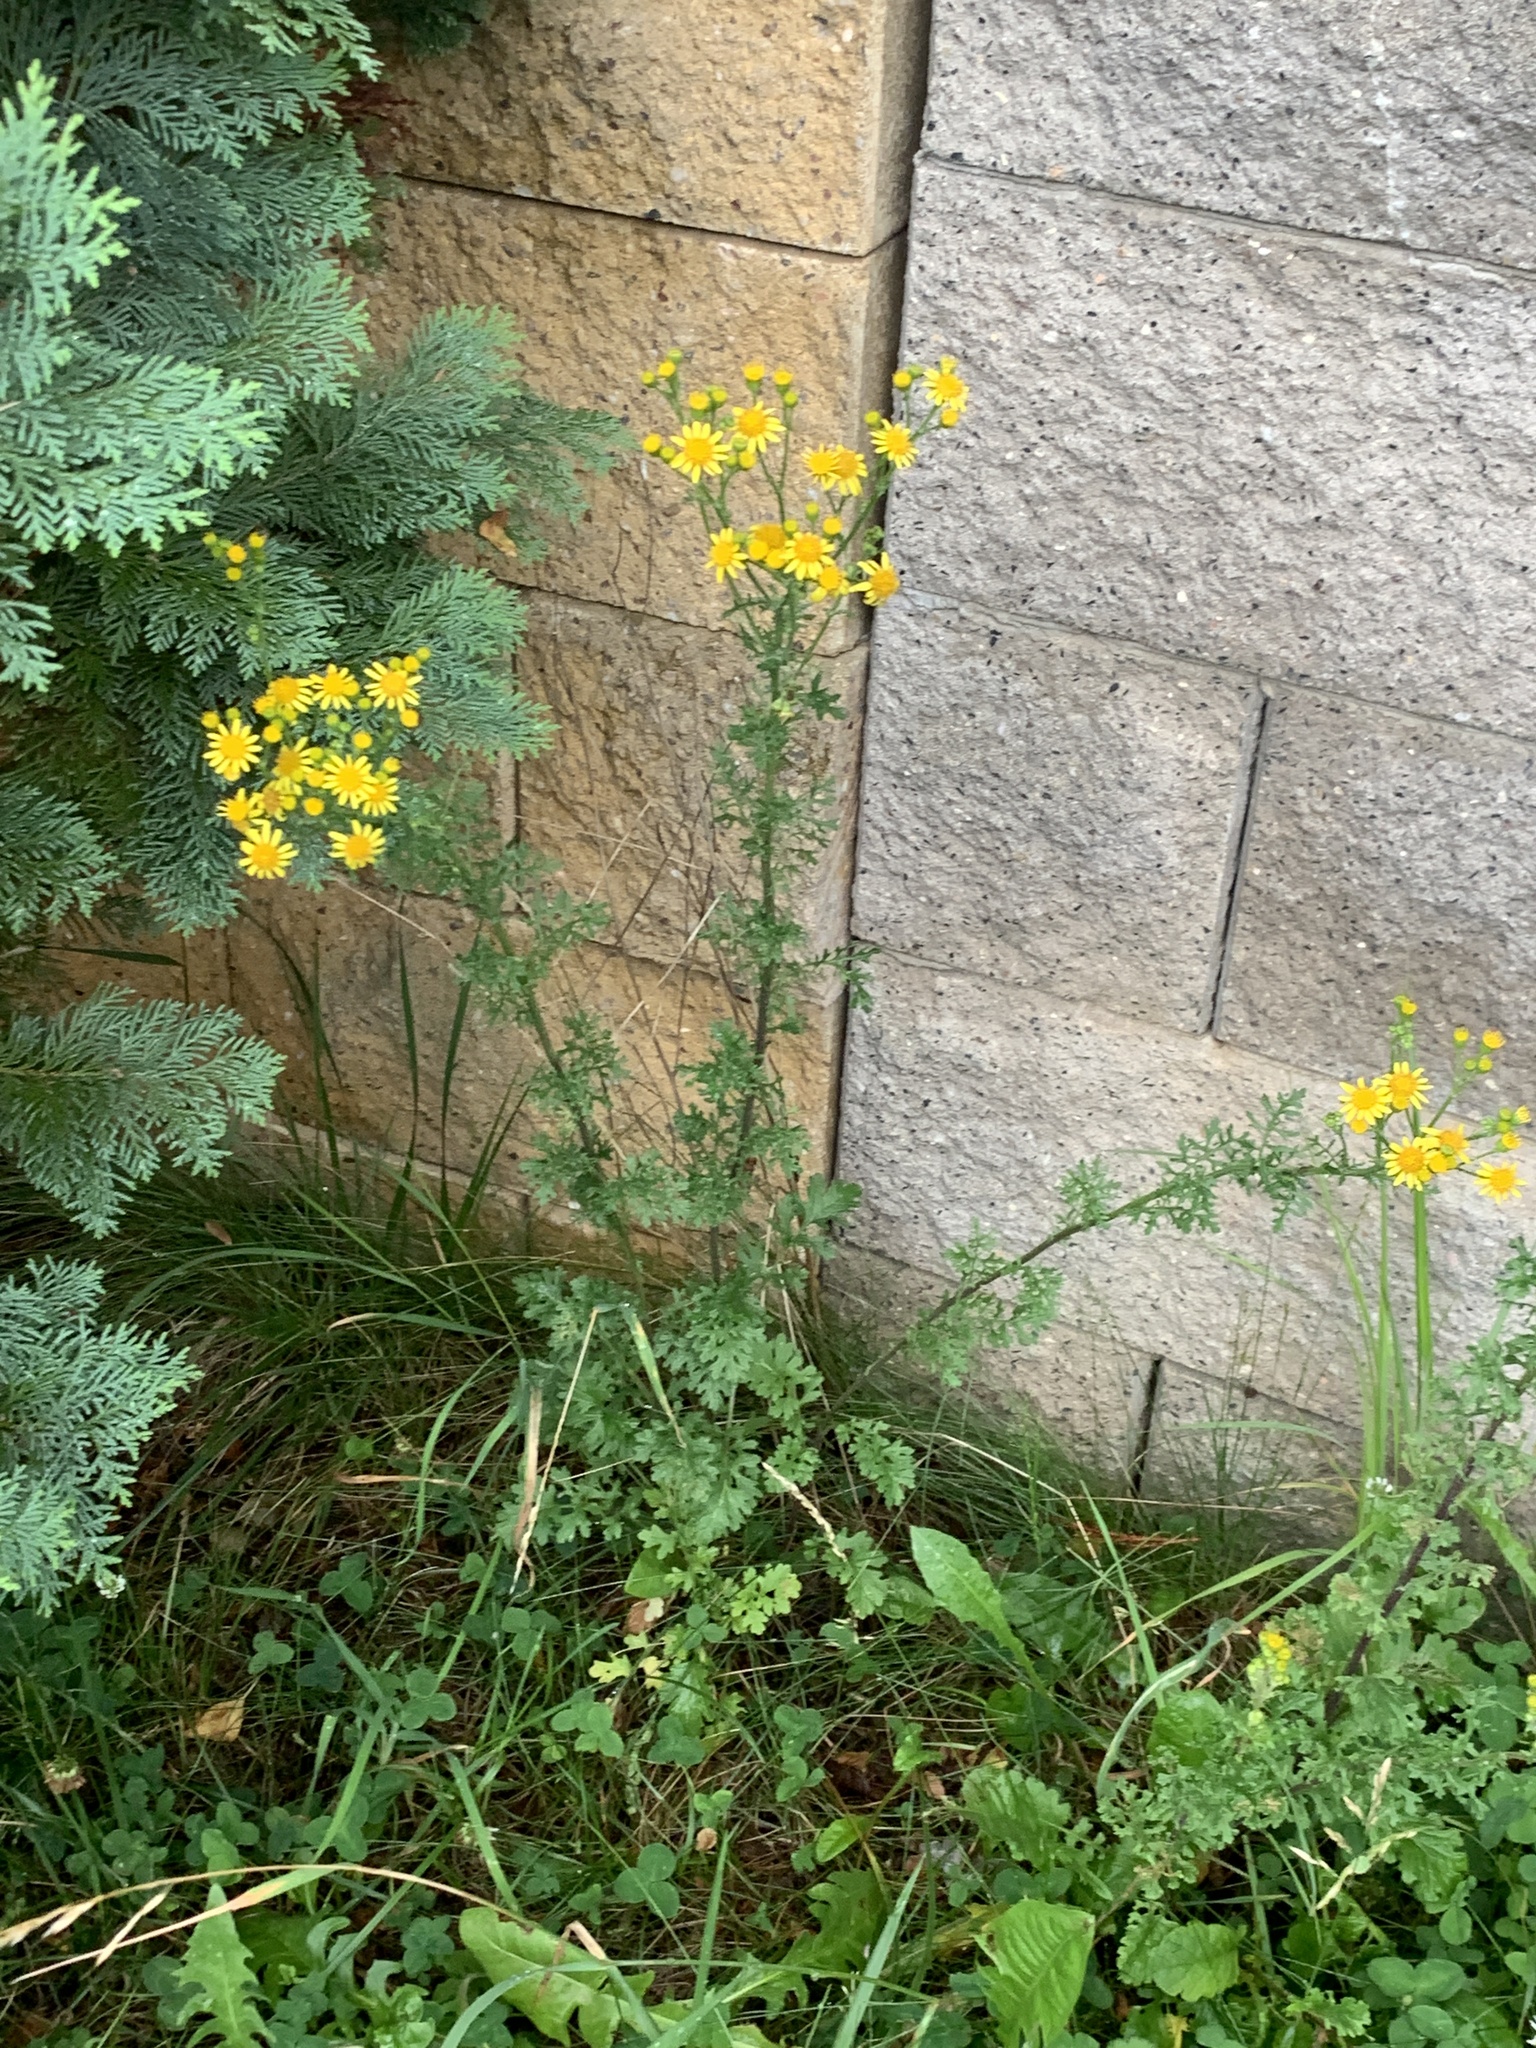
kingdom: Plantae
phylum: Tracheophyta
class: Magnoliopsida
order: Asterales
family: Asteraceae
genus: Jacobaea
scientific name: Jacobaea vulgaris
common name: Stinking willie
